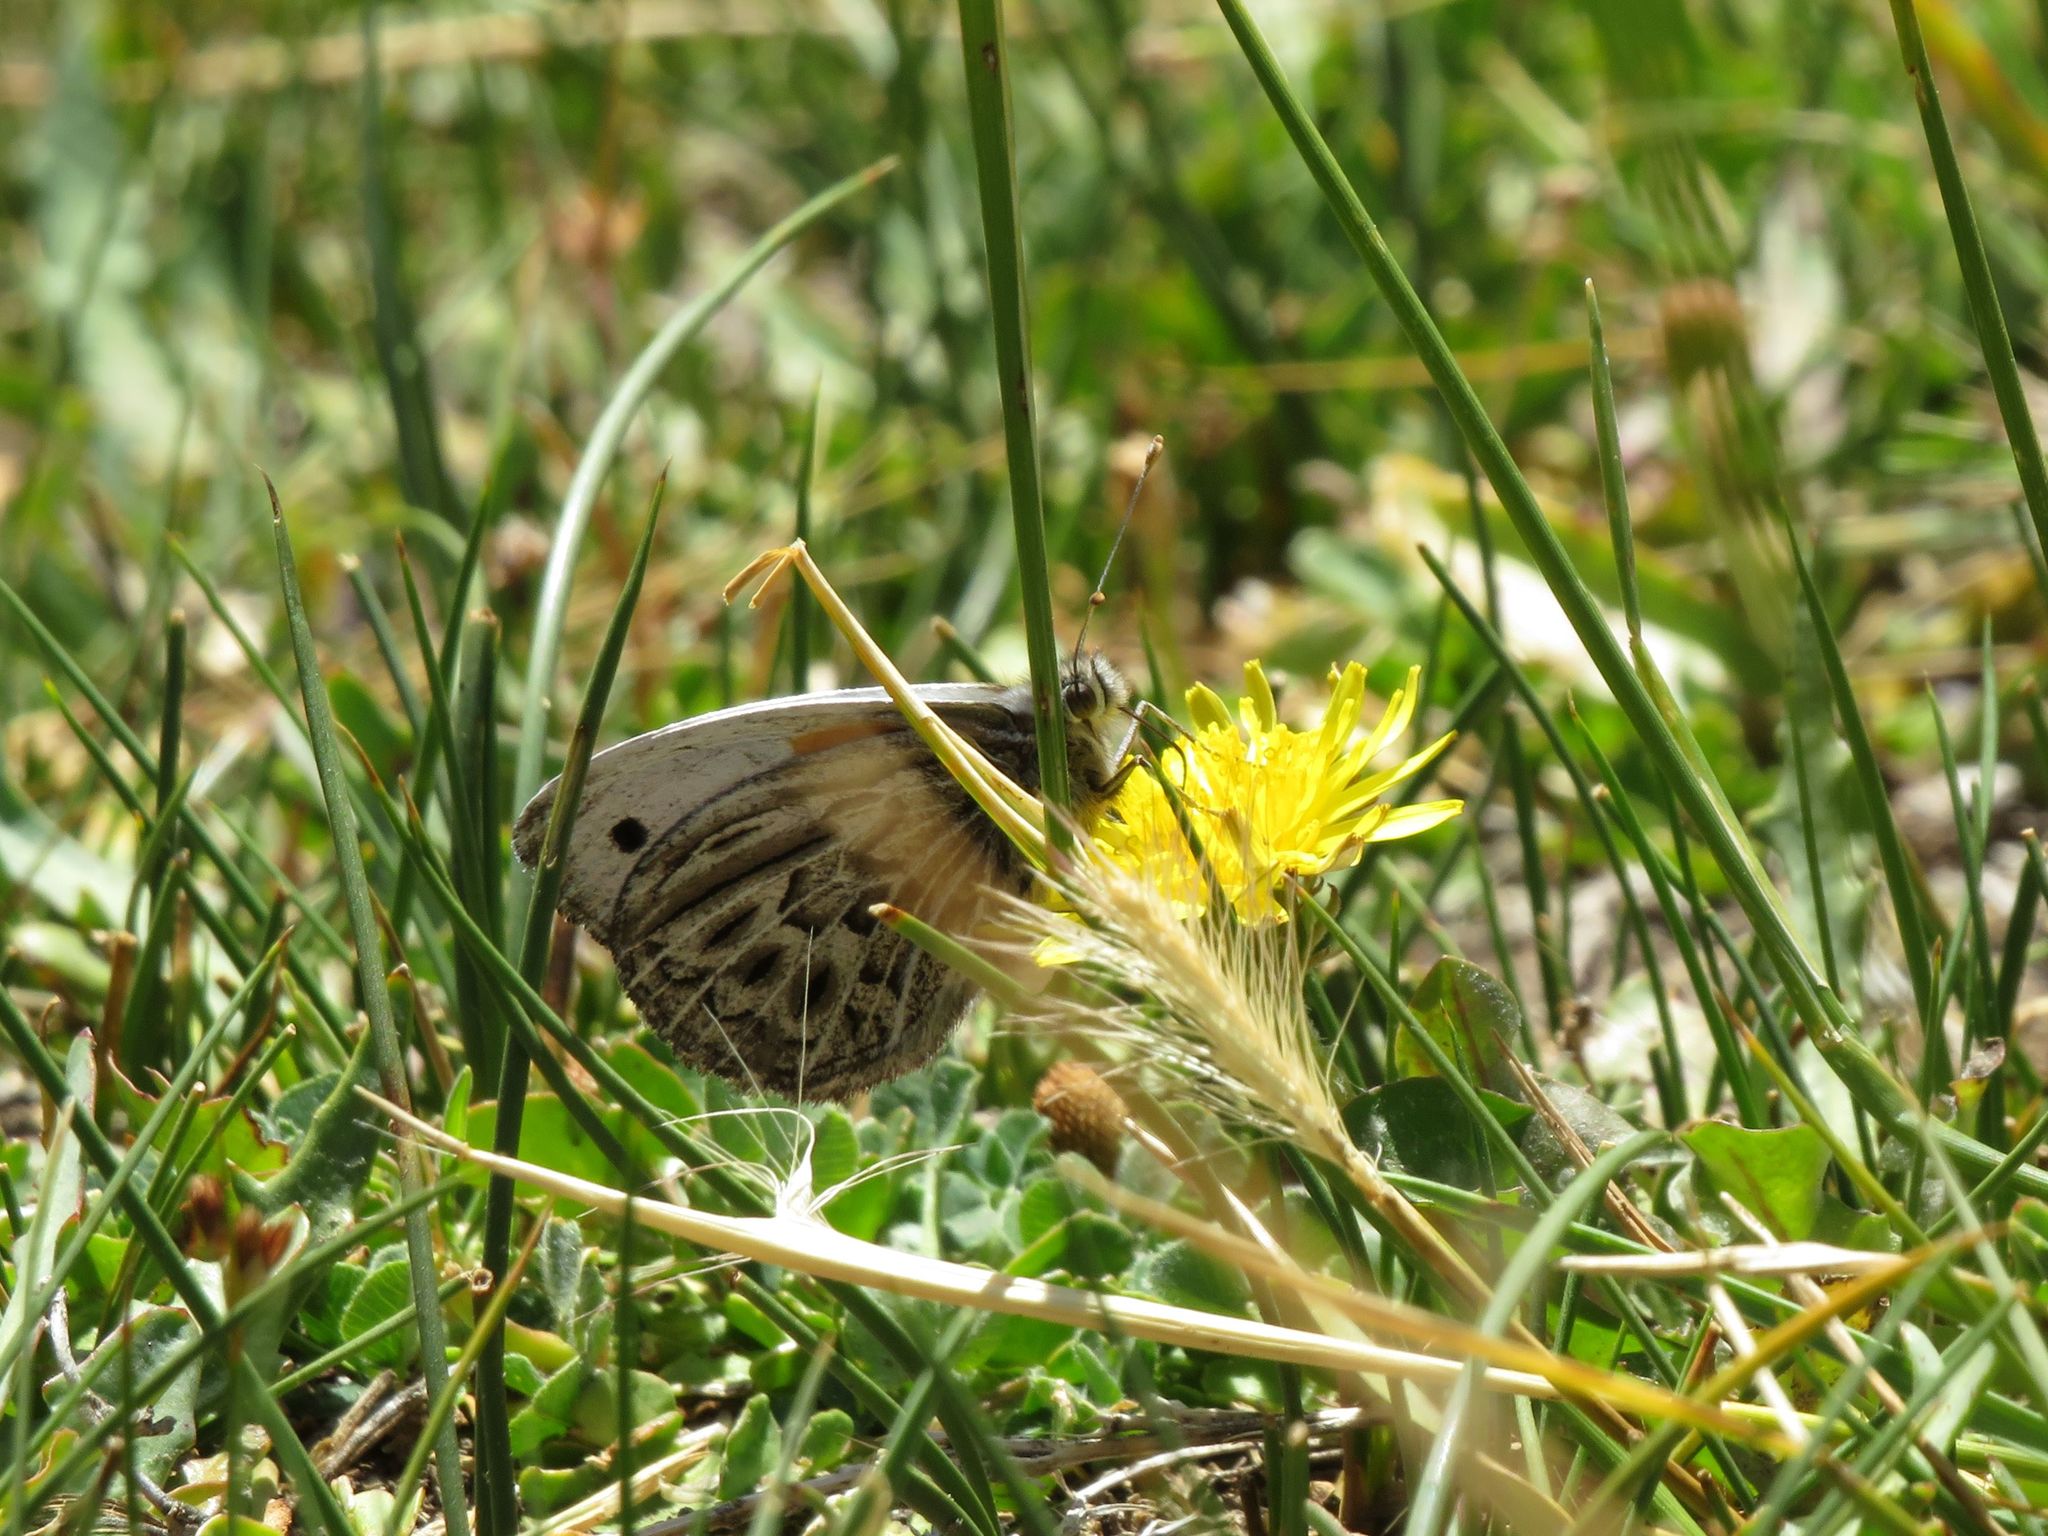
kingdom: Animalia
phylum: Arthropoda
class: Insecta
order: Lepidoptera
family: Nymphalidae
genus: Argyrophorus
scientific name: Argyrophorus argenteus
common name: Silver satyr
